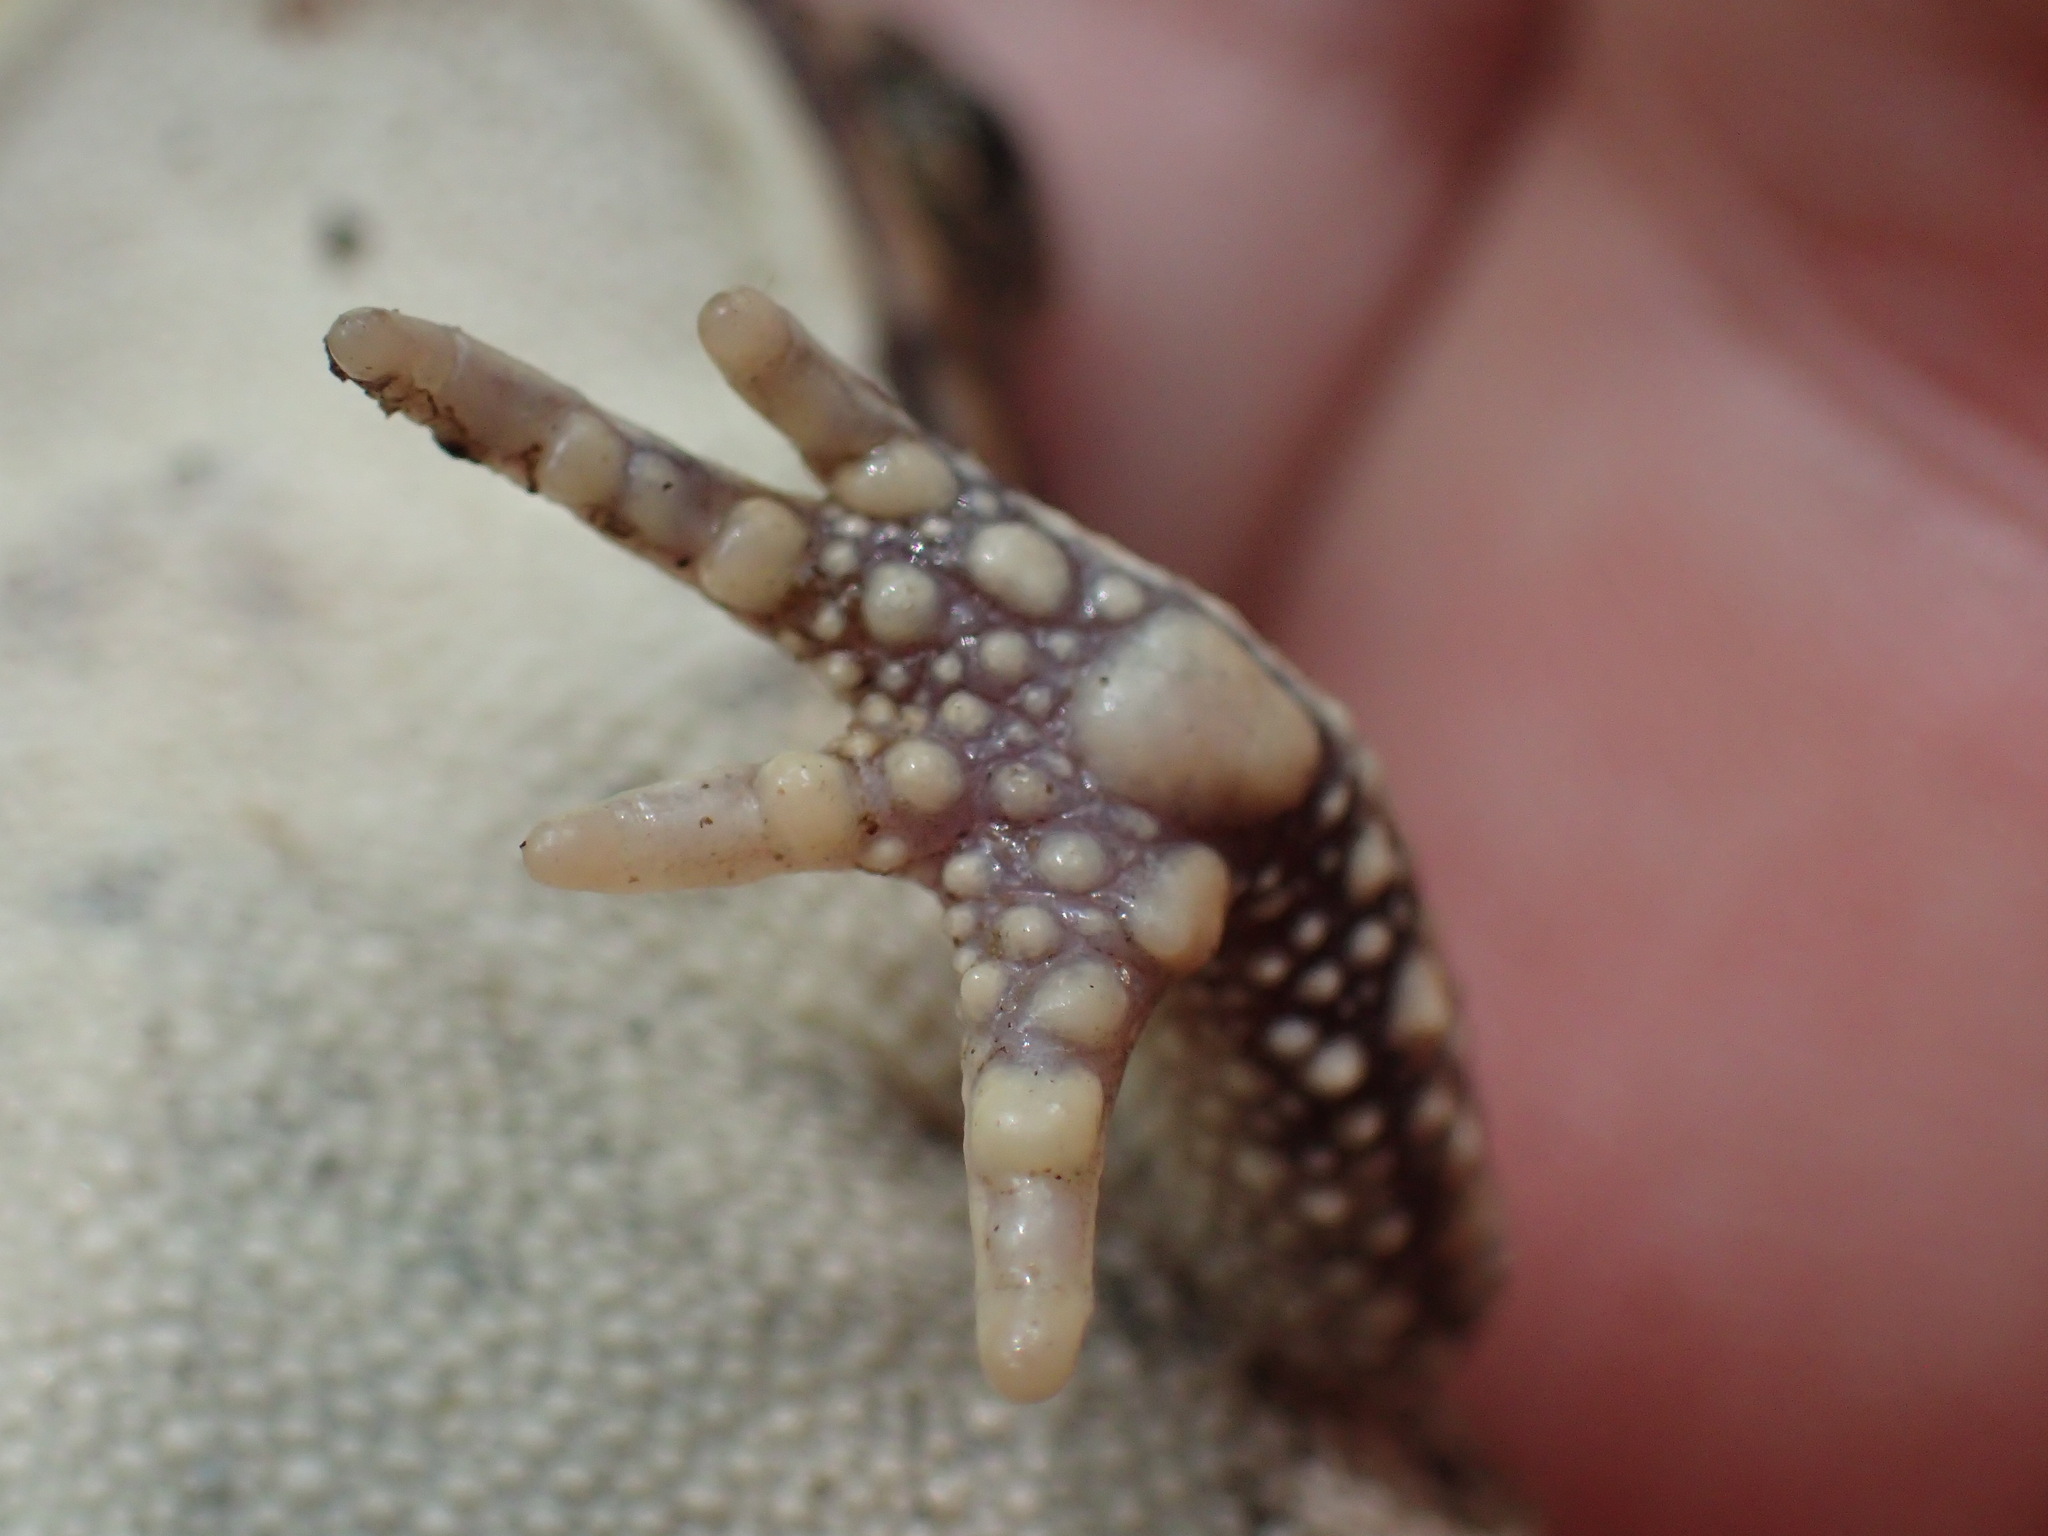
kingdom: Animalia
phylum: Chordata
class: Amphibia
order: Anura
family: Bufonidae
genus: Sclerophrys
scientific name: Sclerophrys gutturalis
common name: African common toad
